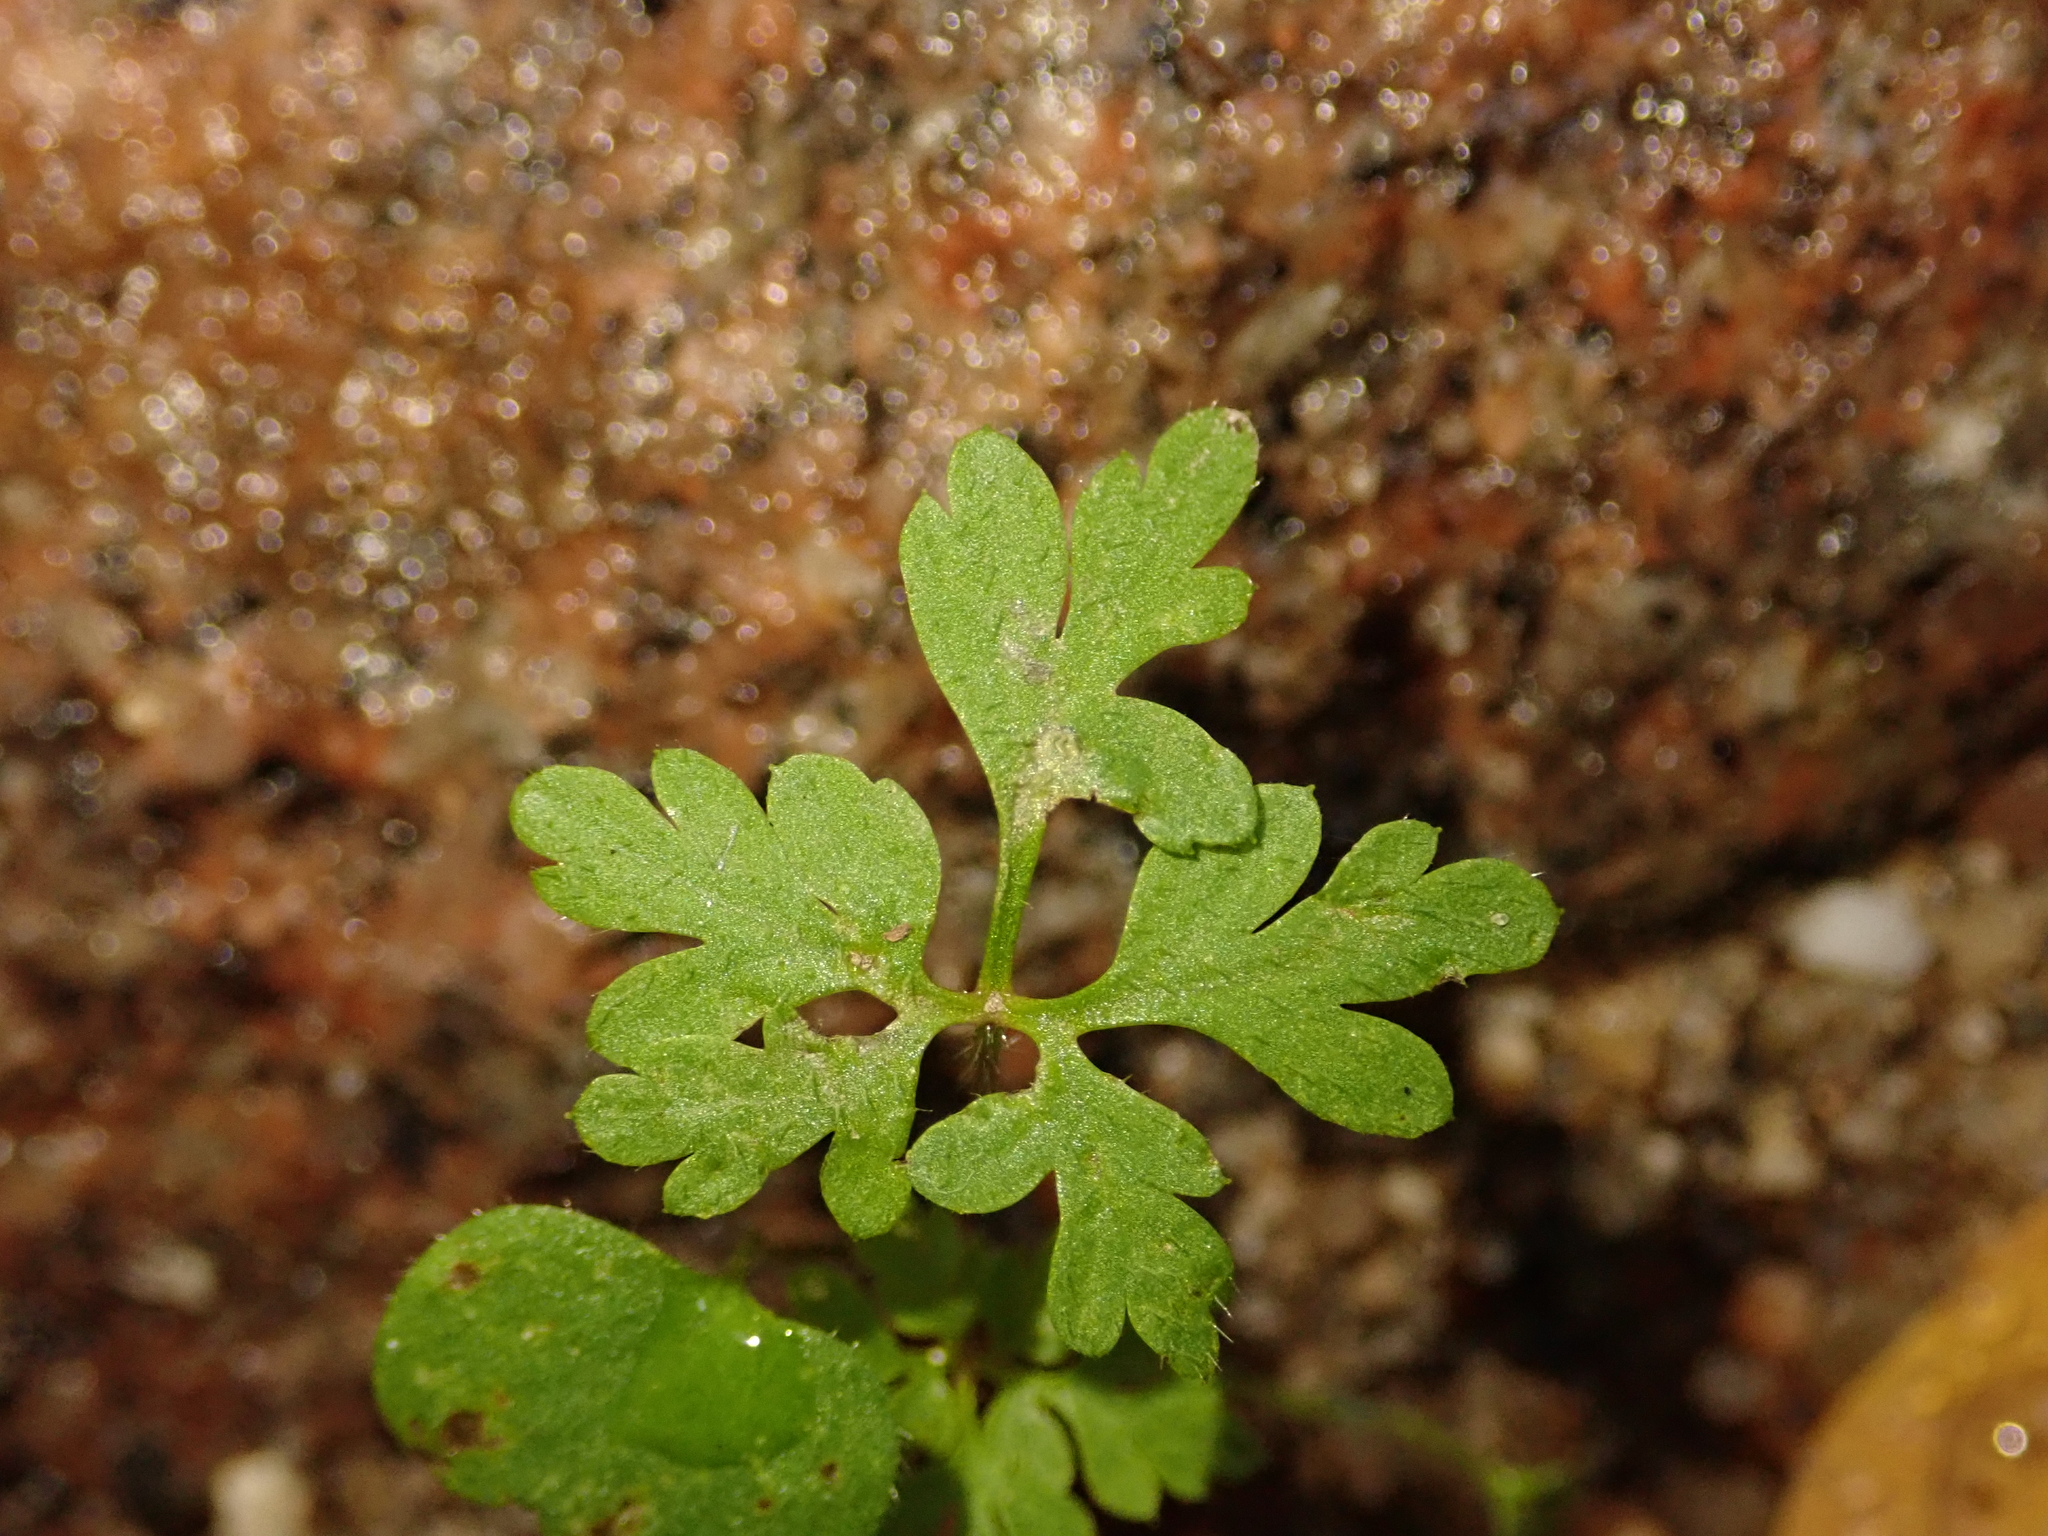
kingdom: Plantae
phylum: Tracheophyta
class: Magnoliopsida
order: Geraniales
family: Geraniaceae
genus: Geranium
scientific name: Geranium robertianum
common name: Herb-robert
